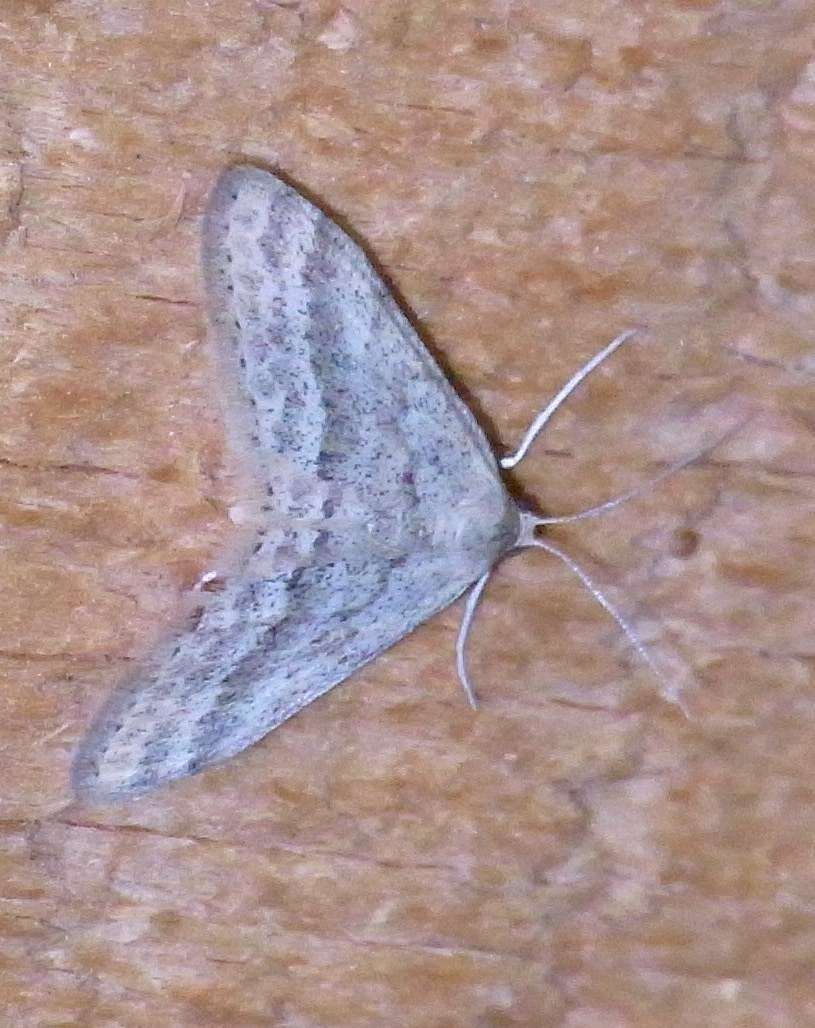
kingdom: Animalia
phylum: Arthropoda
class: Insecta
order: Lepidoptera
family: Geometridae
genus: Scopula
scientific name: Scopula lydia
